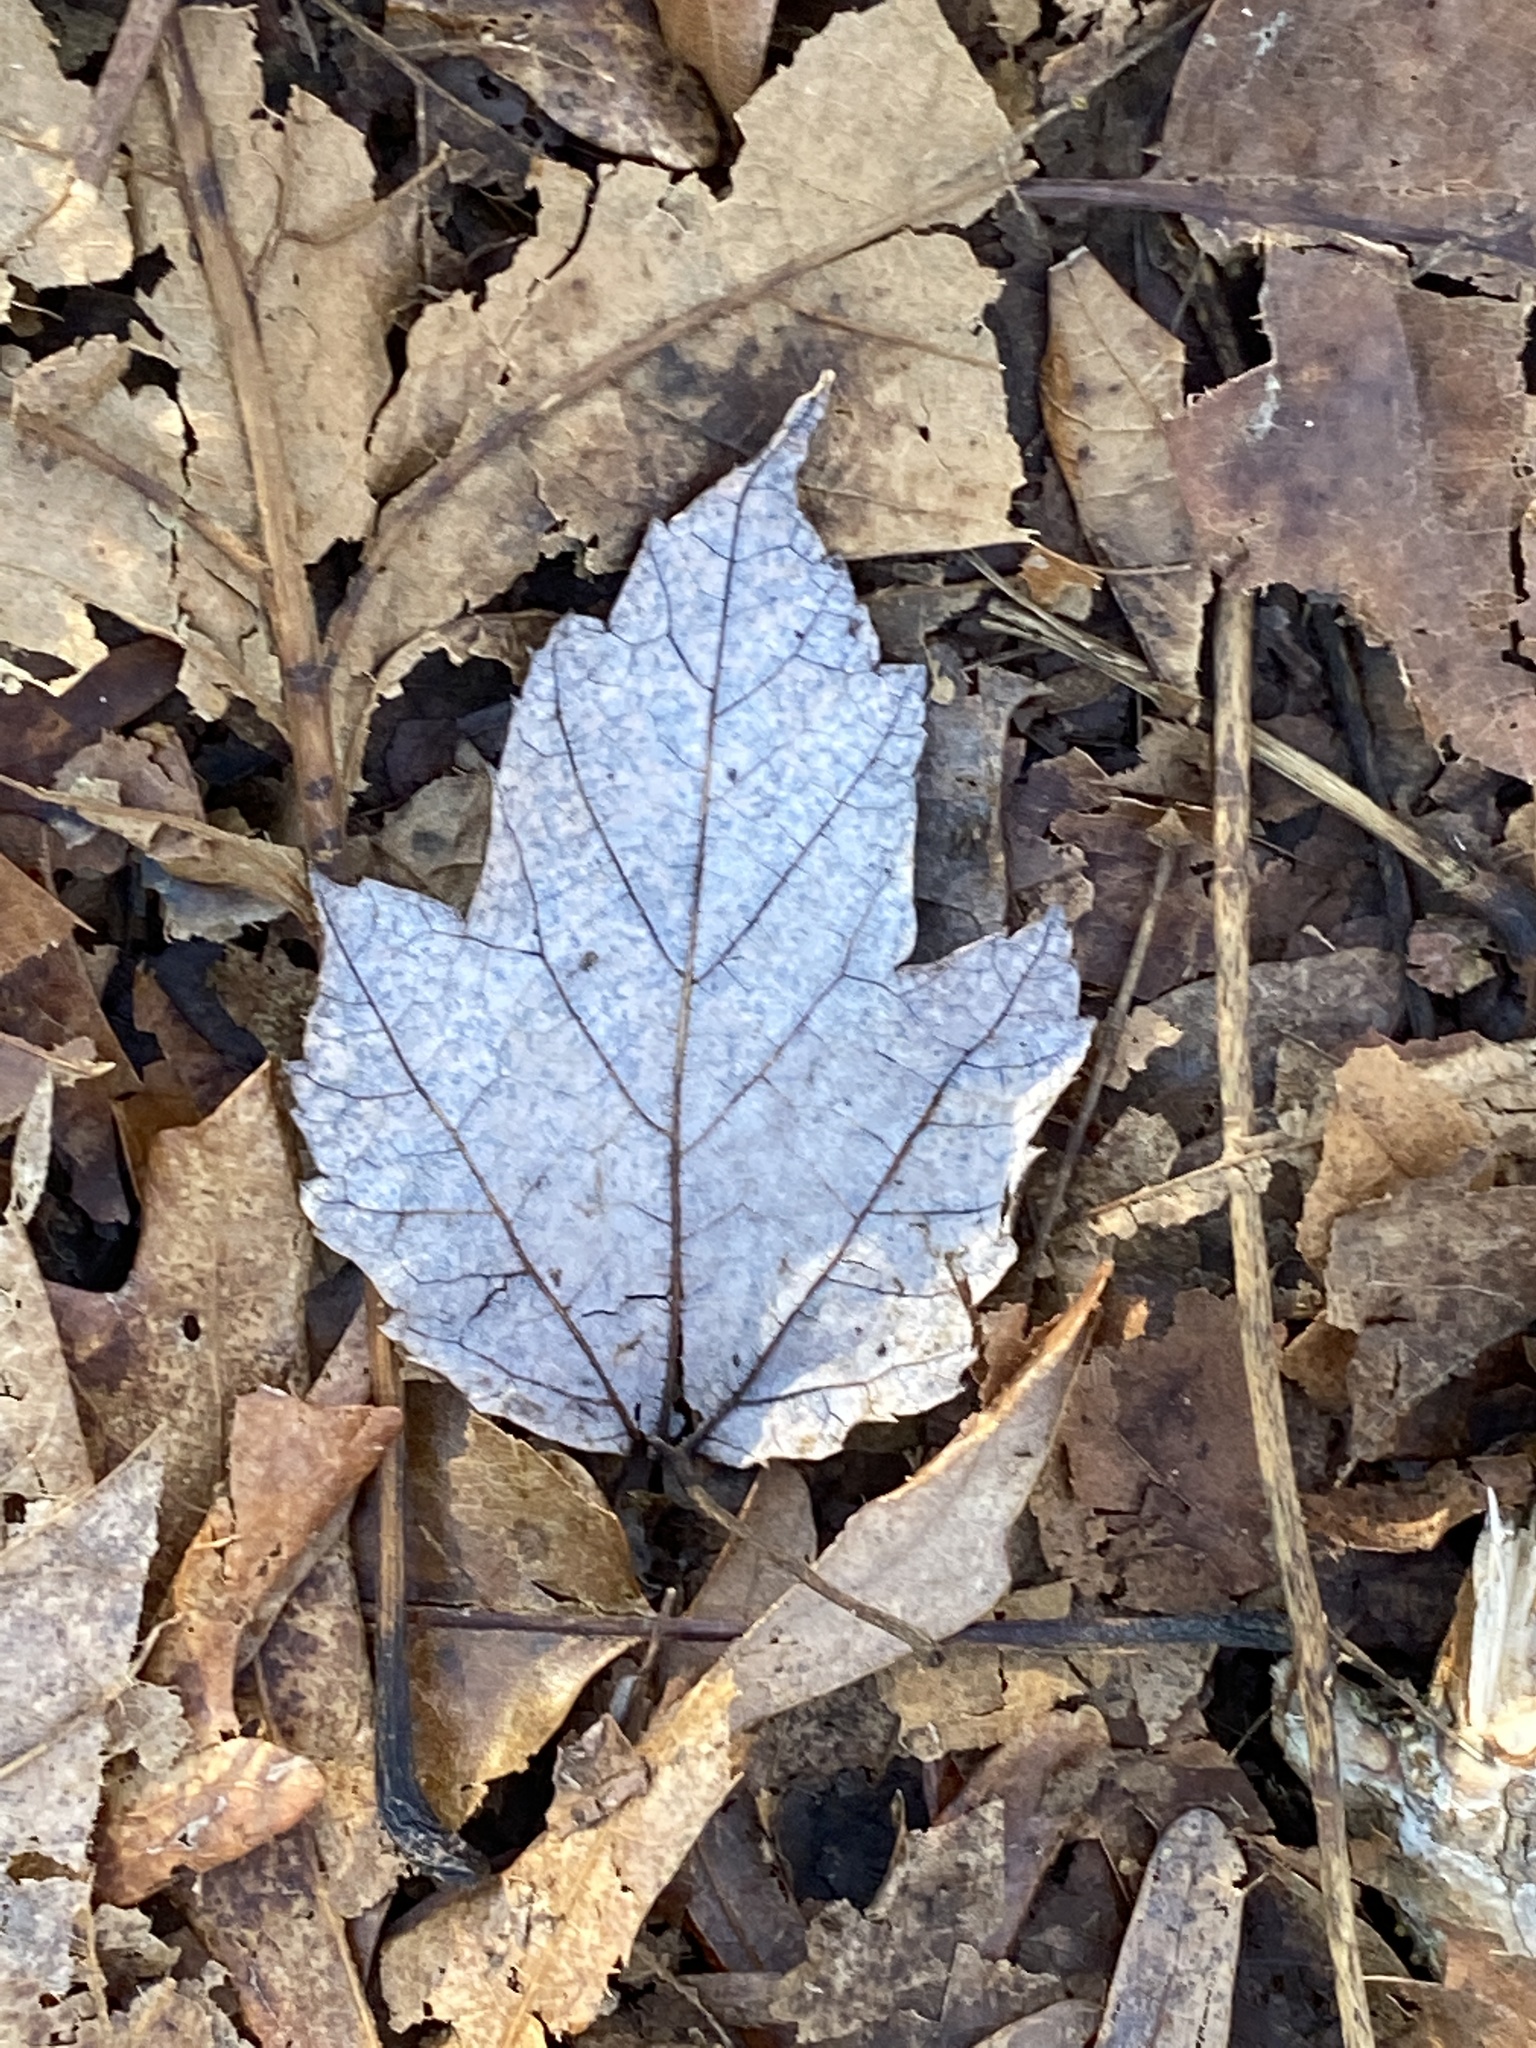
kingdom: Plantae
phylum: Tracheophyta
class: Magnoliopsida
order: Sapindales
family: Sapindaceae
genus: Acer
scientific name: Acer rubrum
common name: Red maple
